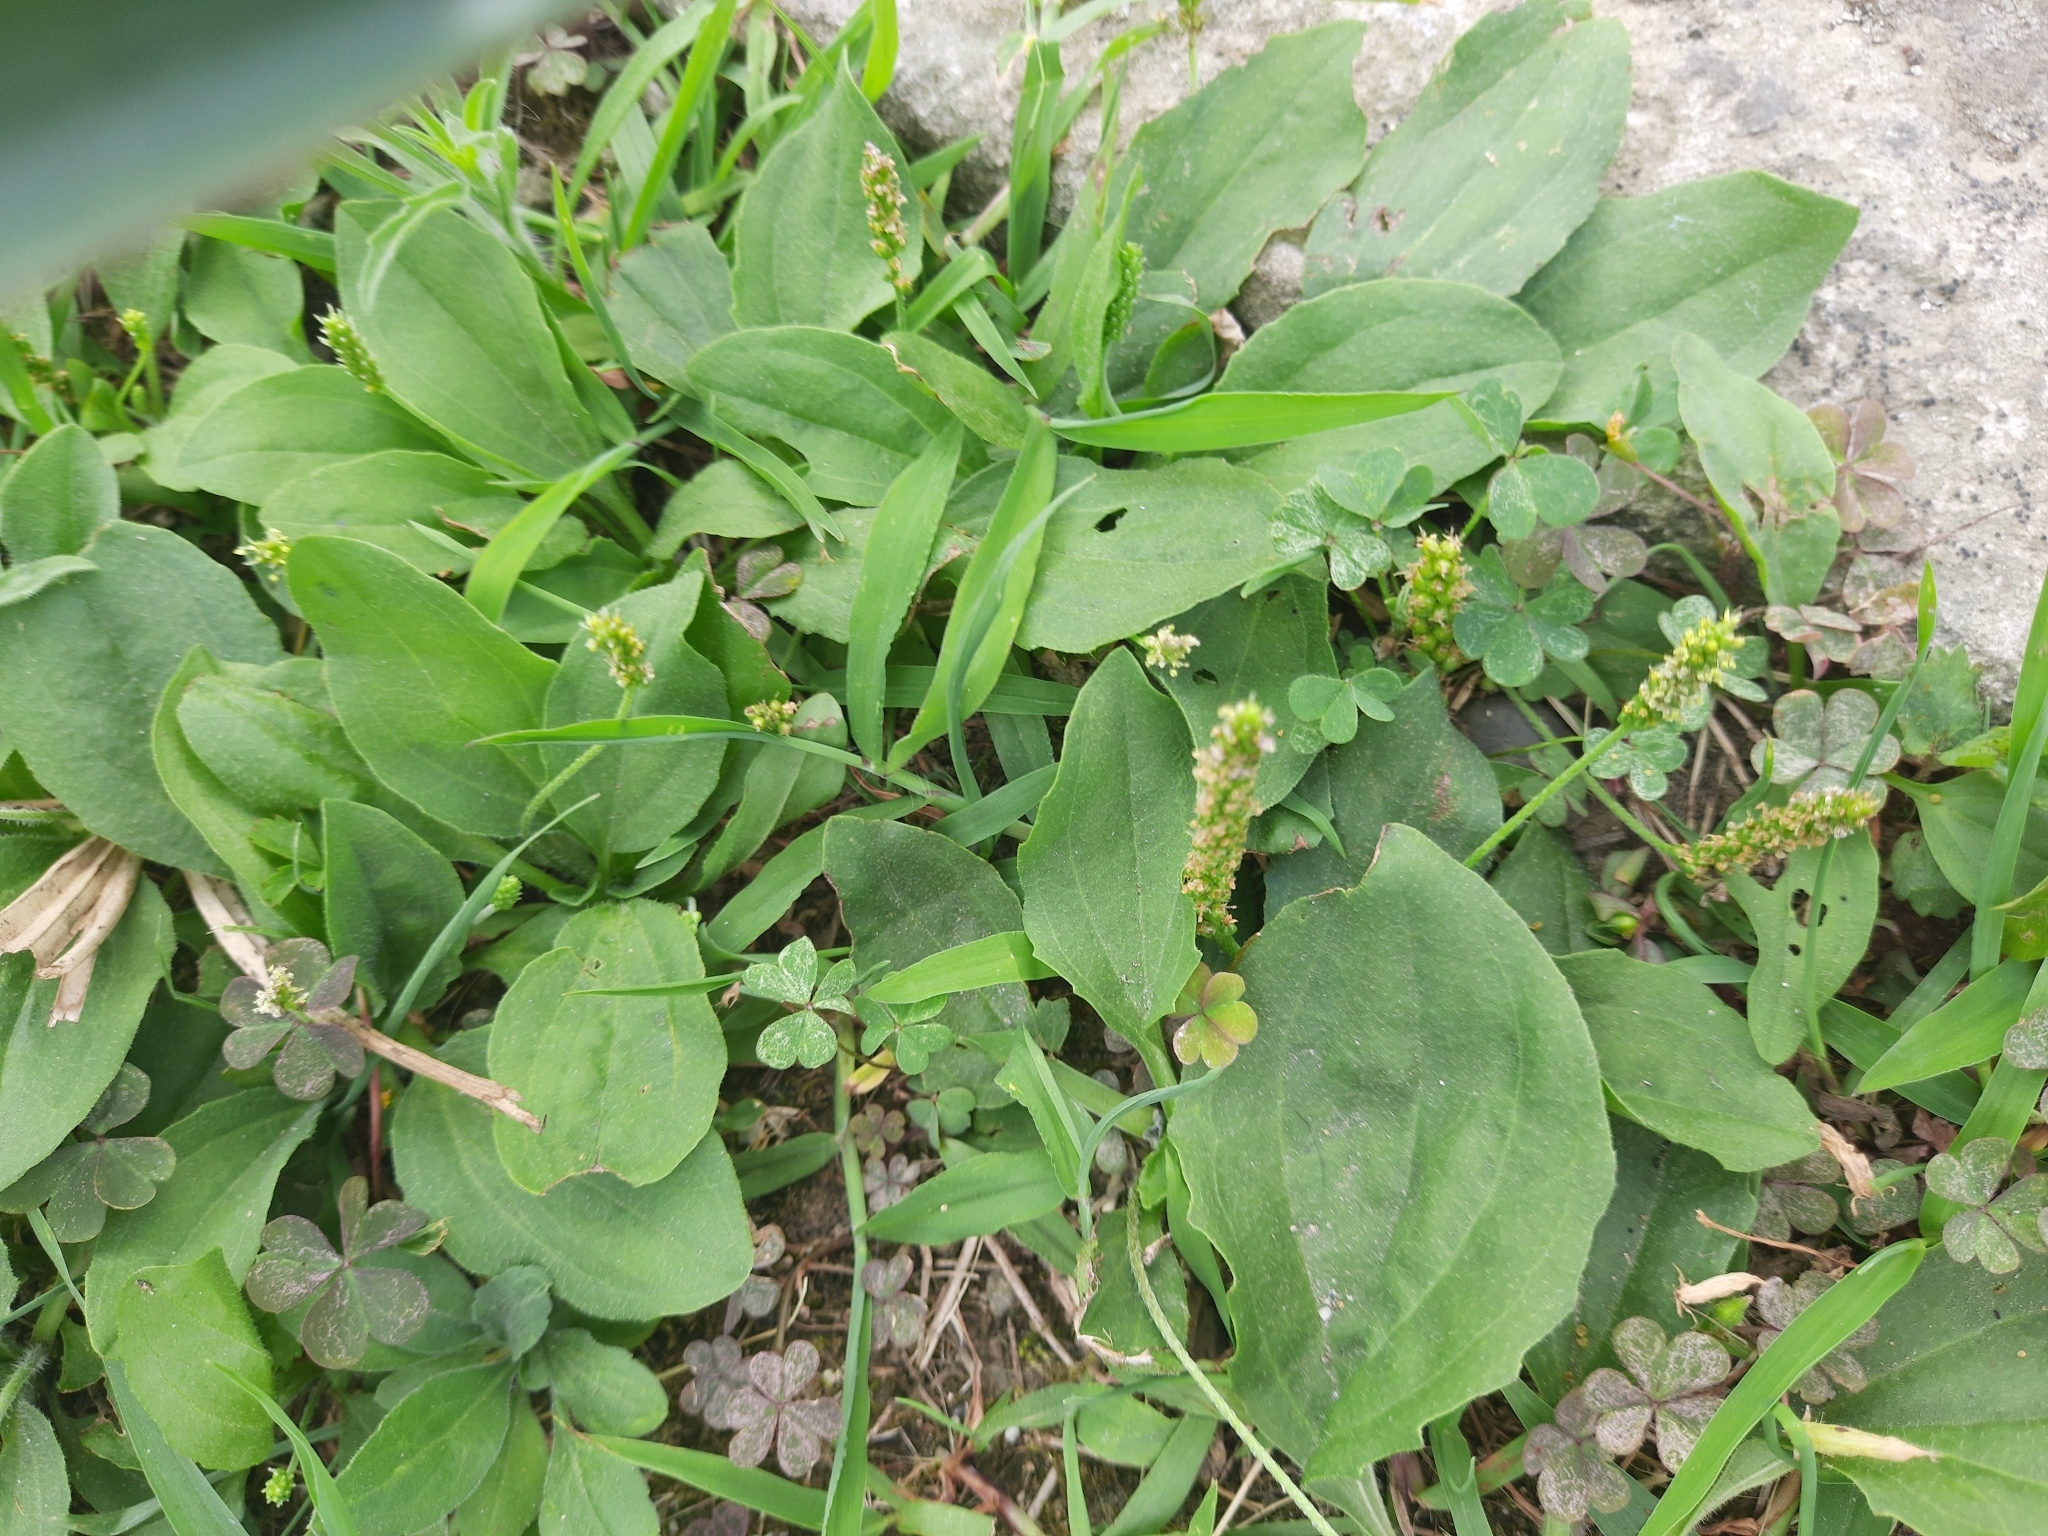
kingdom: Plantae
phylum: Tracheophyta
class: Magnoliopsida
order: Lamiales
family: Plantaginaceae
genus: Plantago
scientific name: Plantago major
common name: Common plantain
